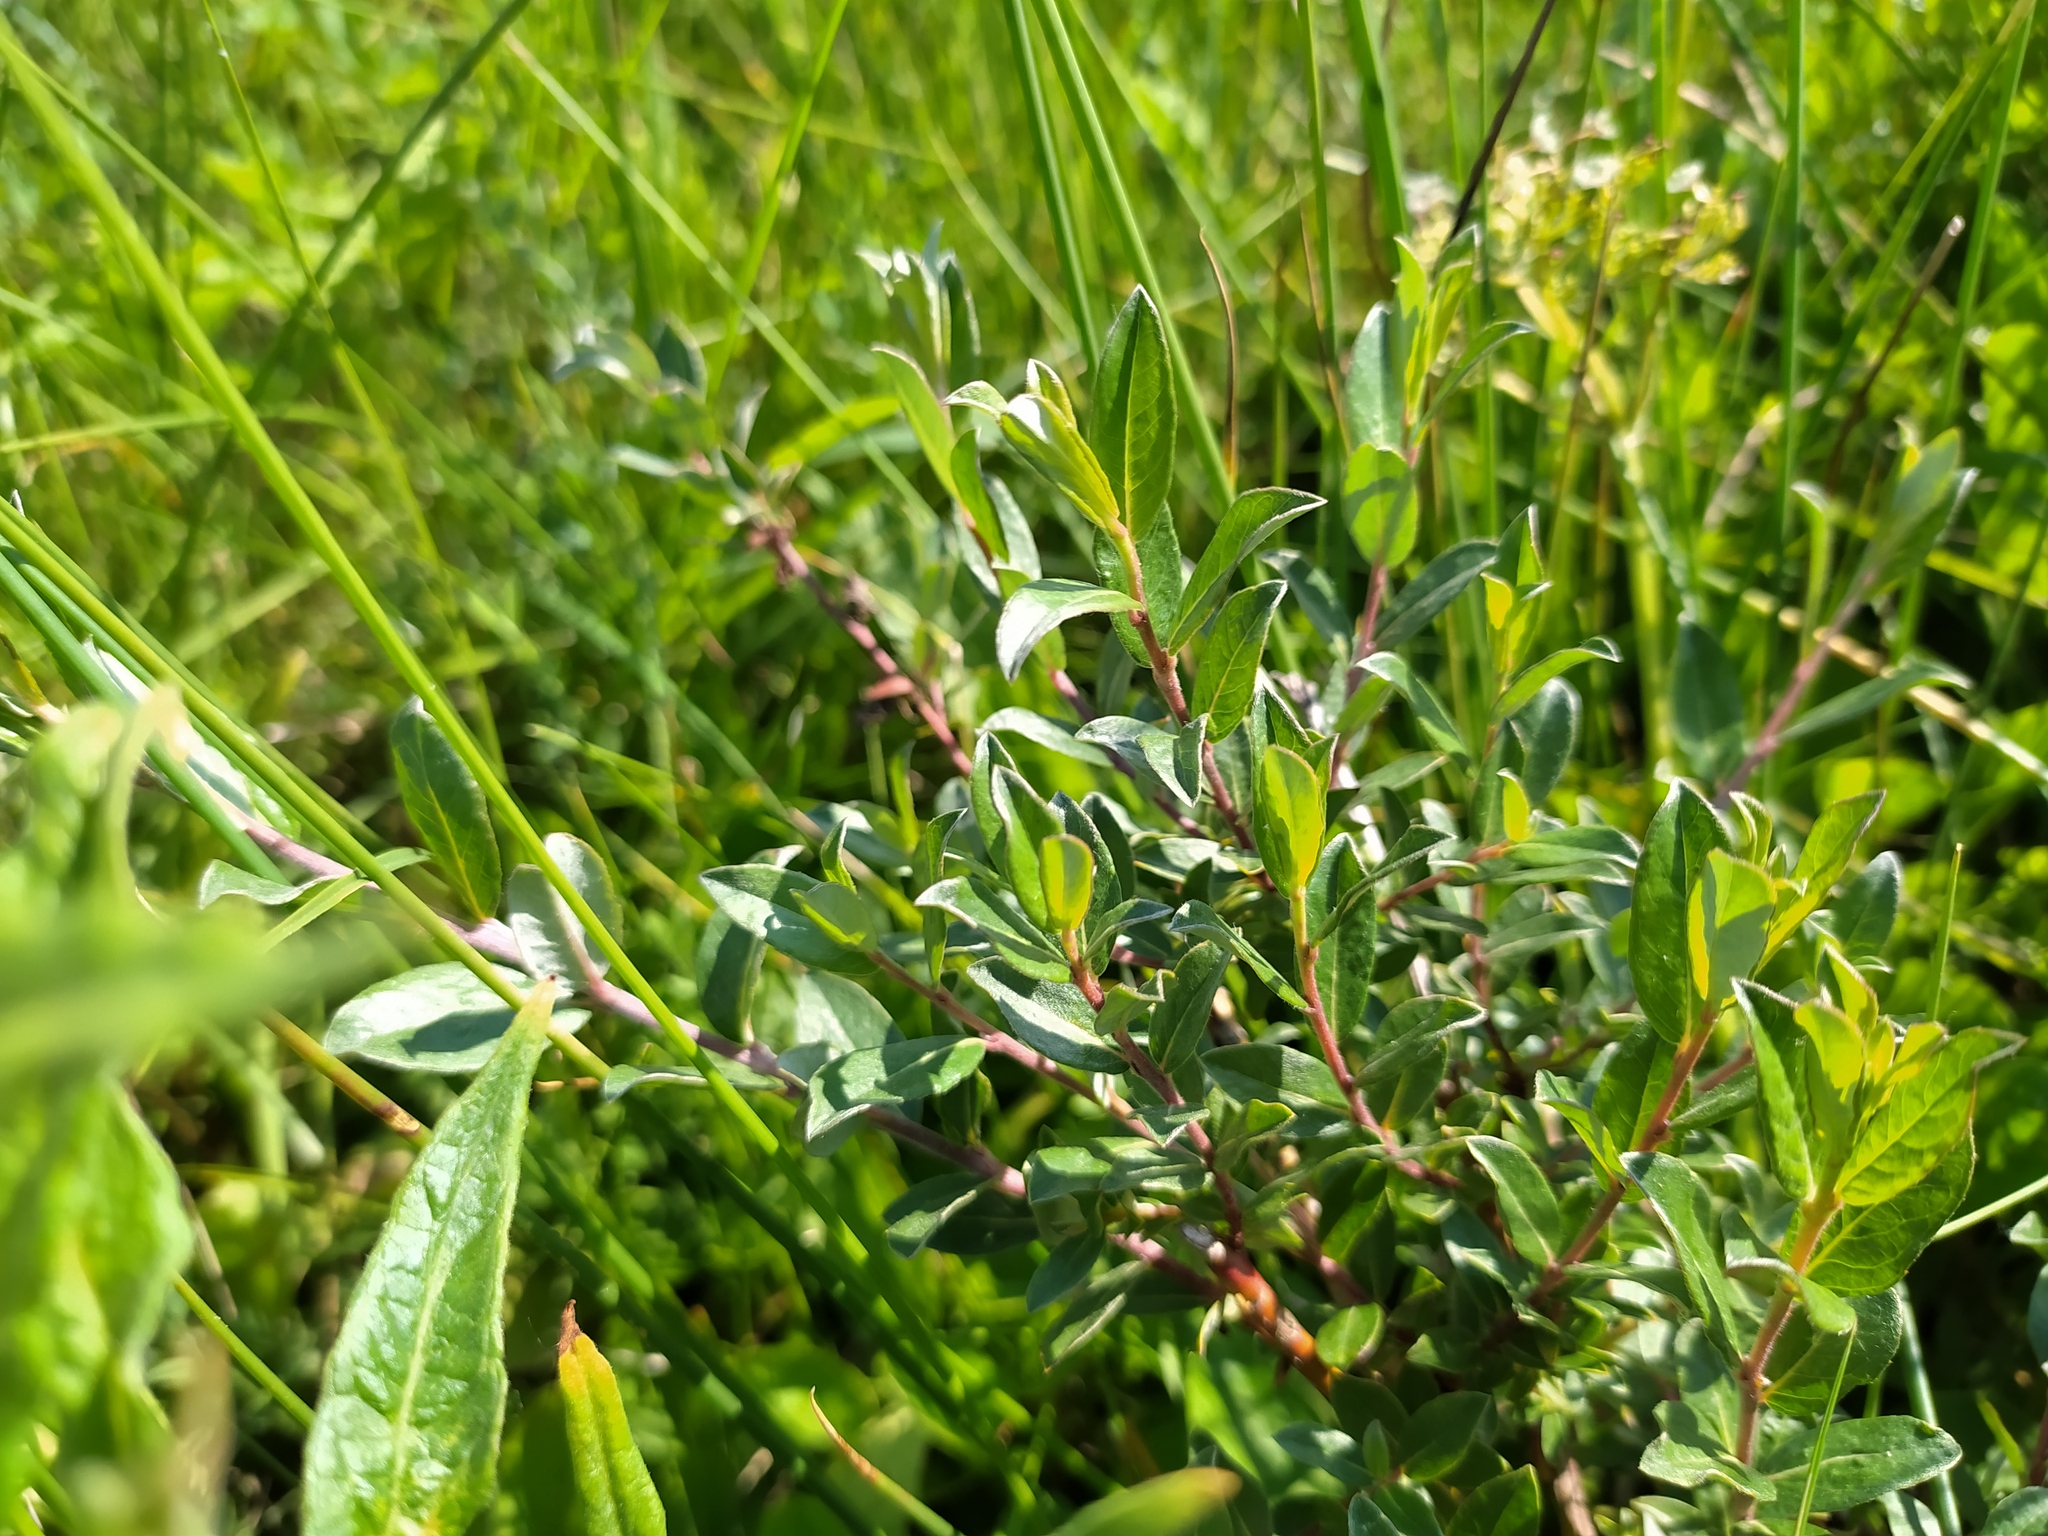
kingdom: Plantae
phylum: Tracheophyta
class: Magnoliopsida
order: Malpighiales
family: Salicaceae
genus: Salix
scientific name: Salix repens
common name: Creeping willow
